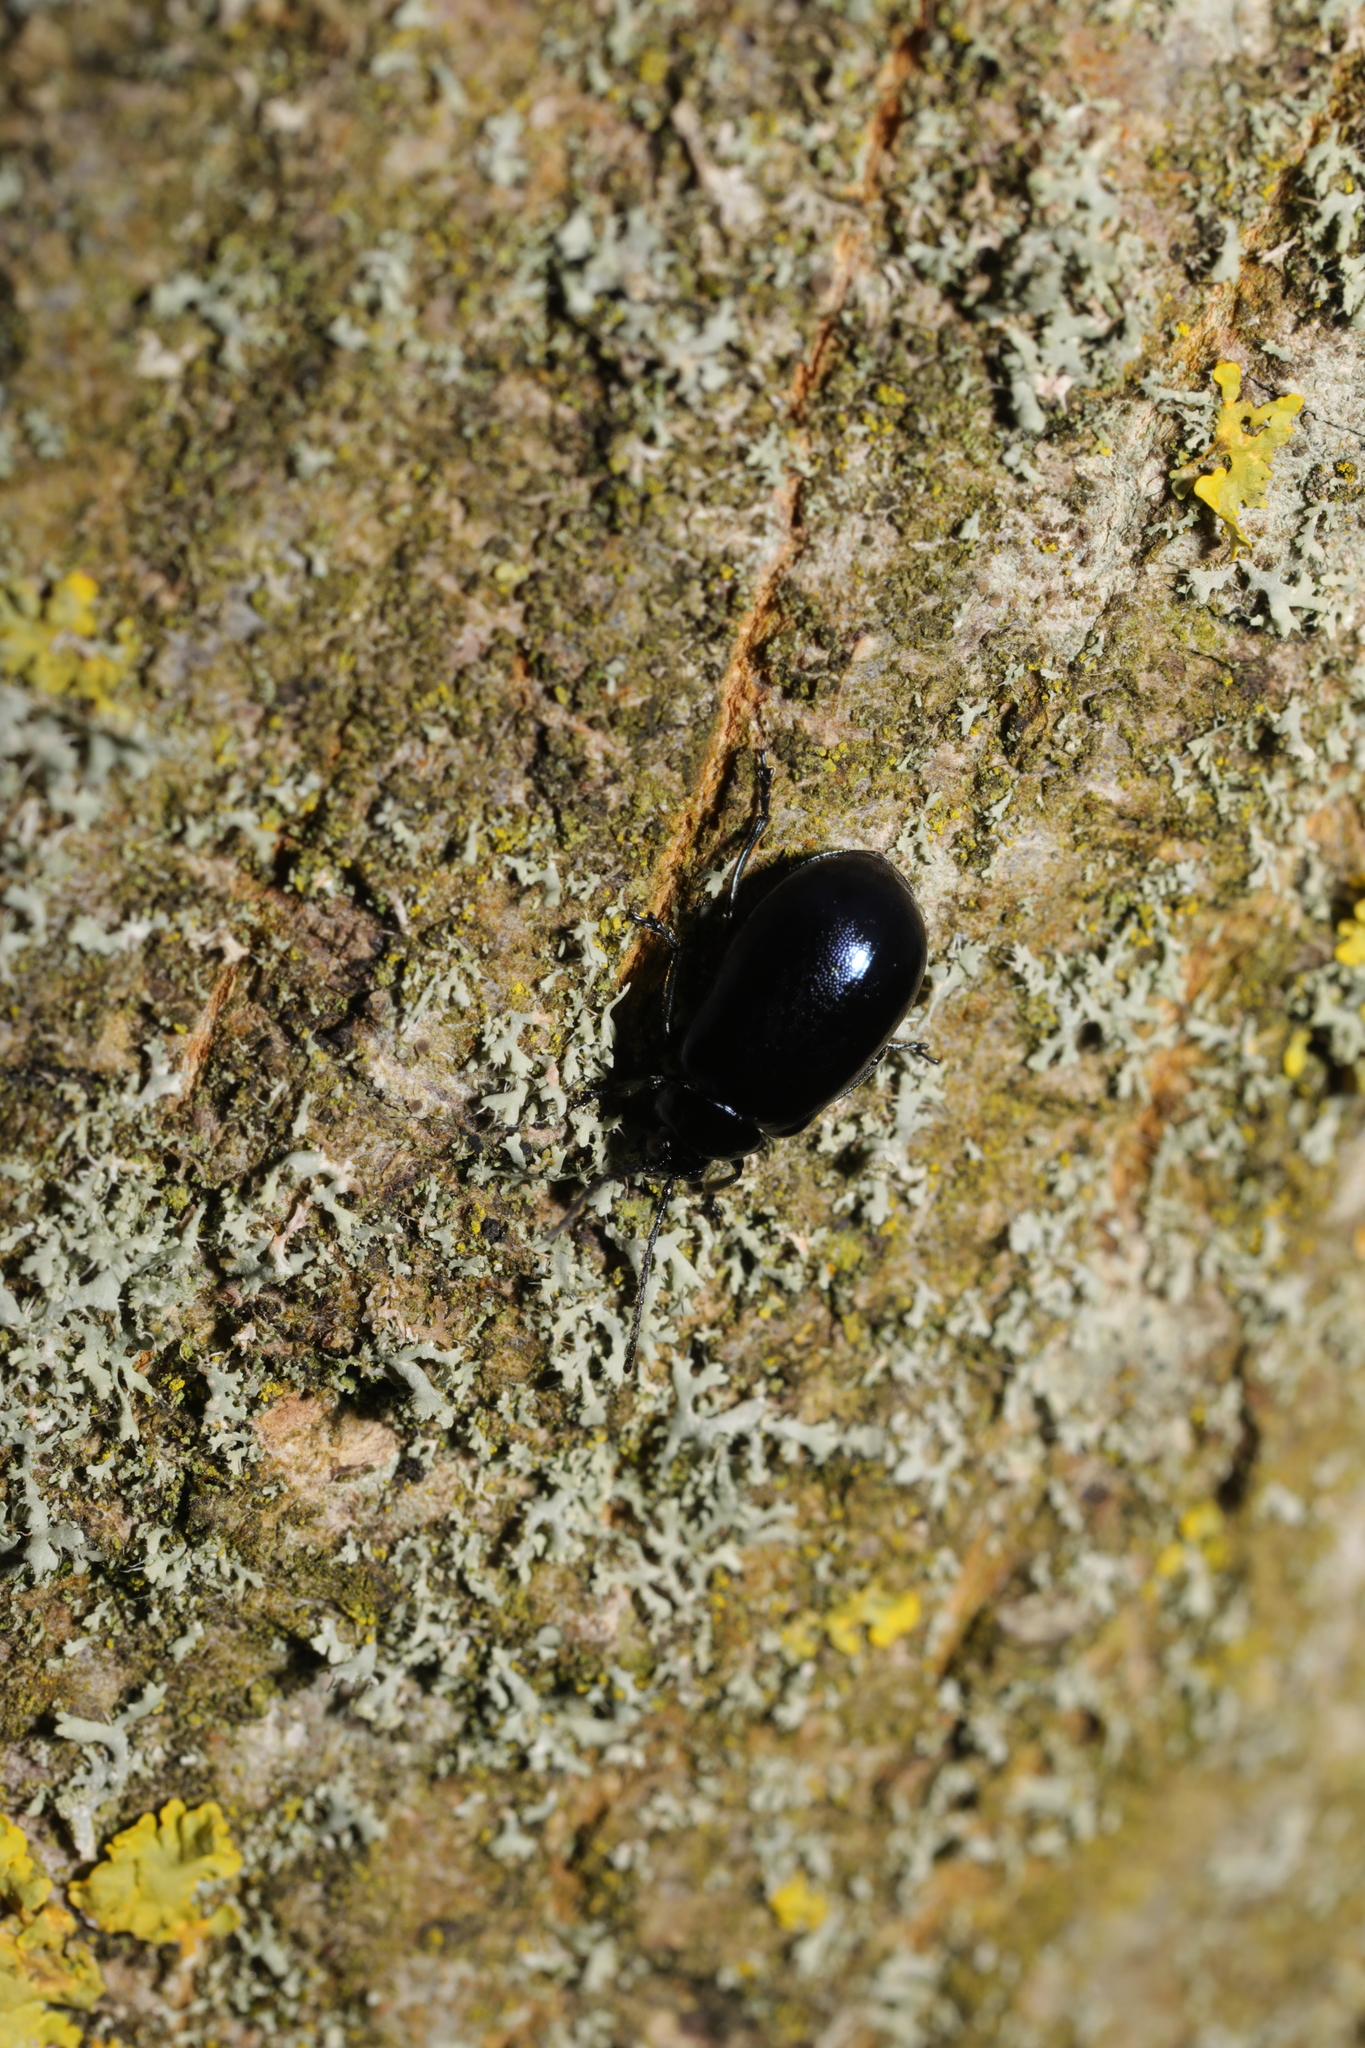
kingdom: Animalia
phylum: Arthropoda
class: Insecta
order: Coleoptera
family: Chrysomelidae
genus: Agelastica
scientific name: Agelastica alni
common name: Alder leaf beetle
